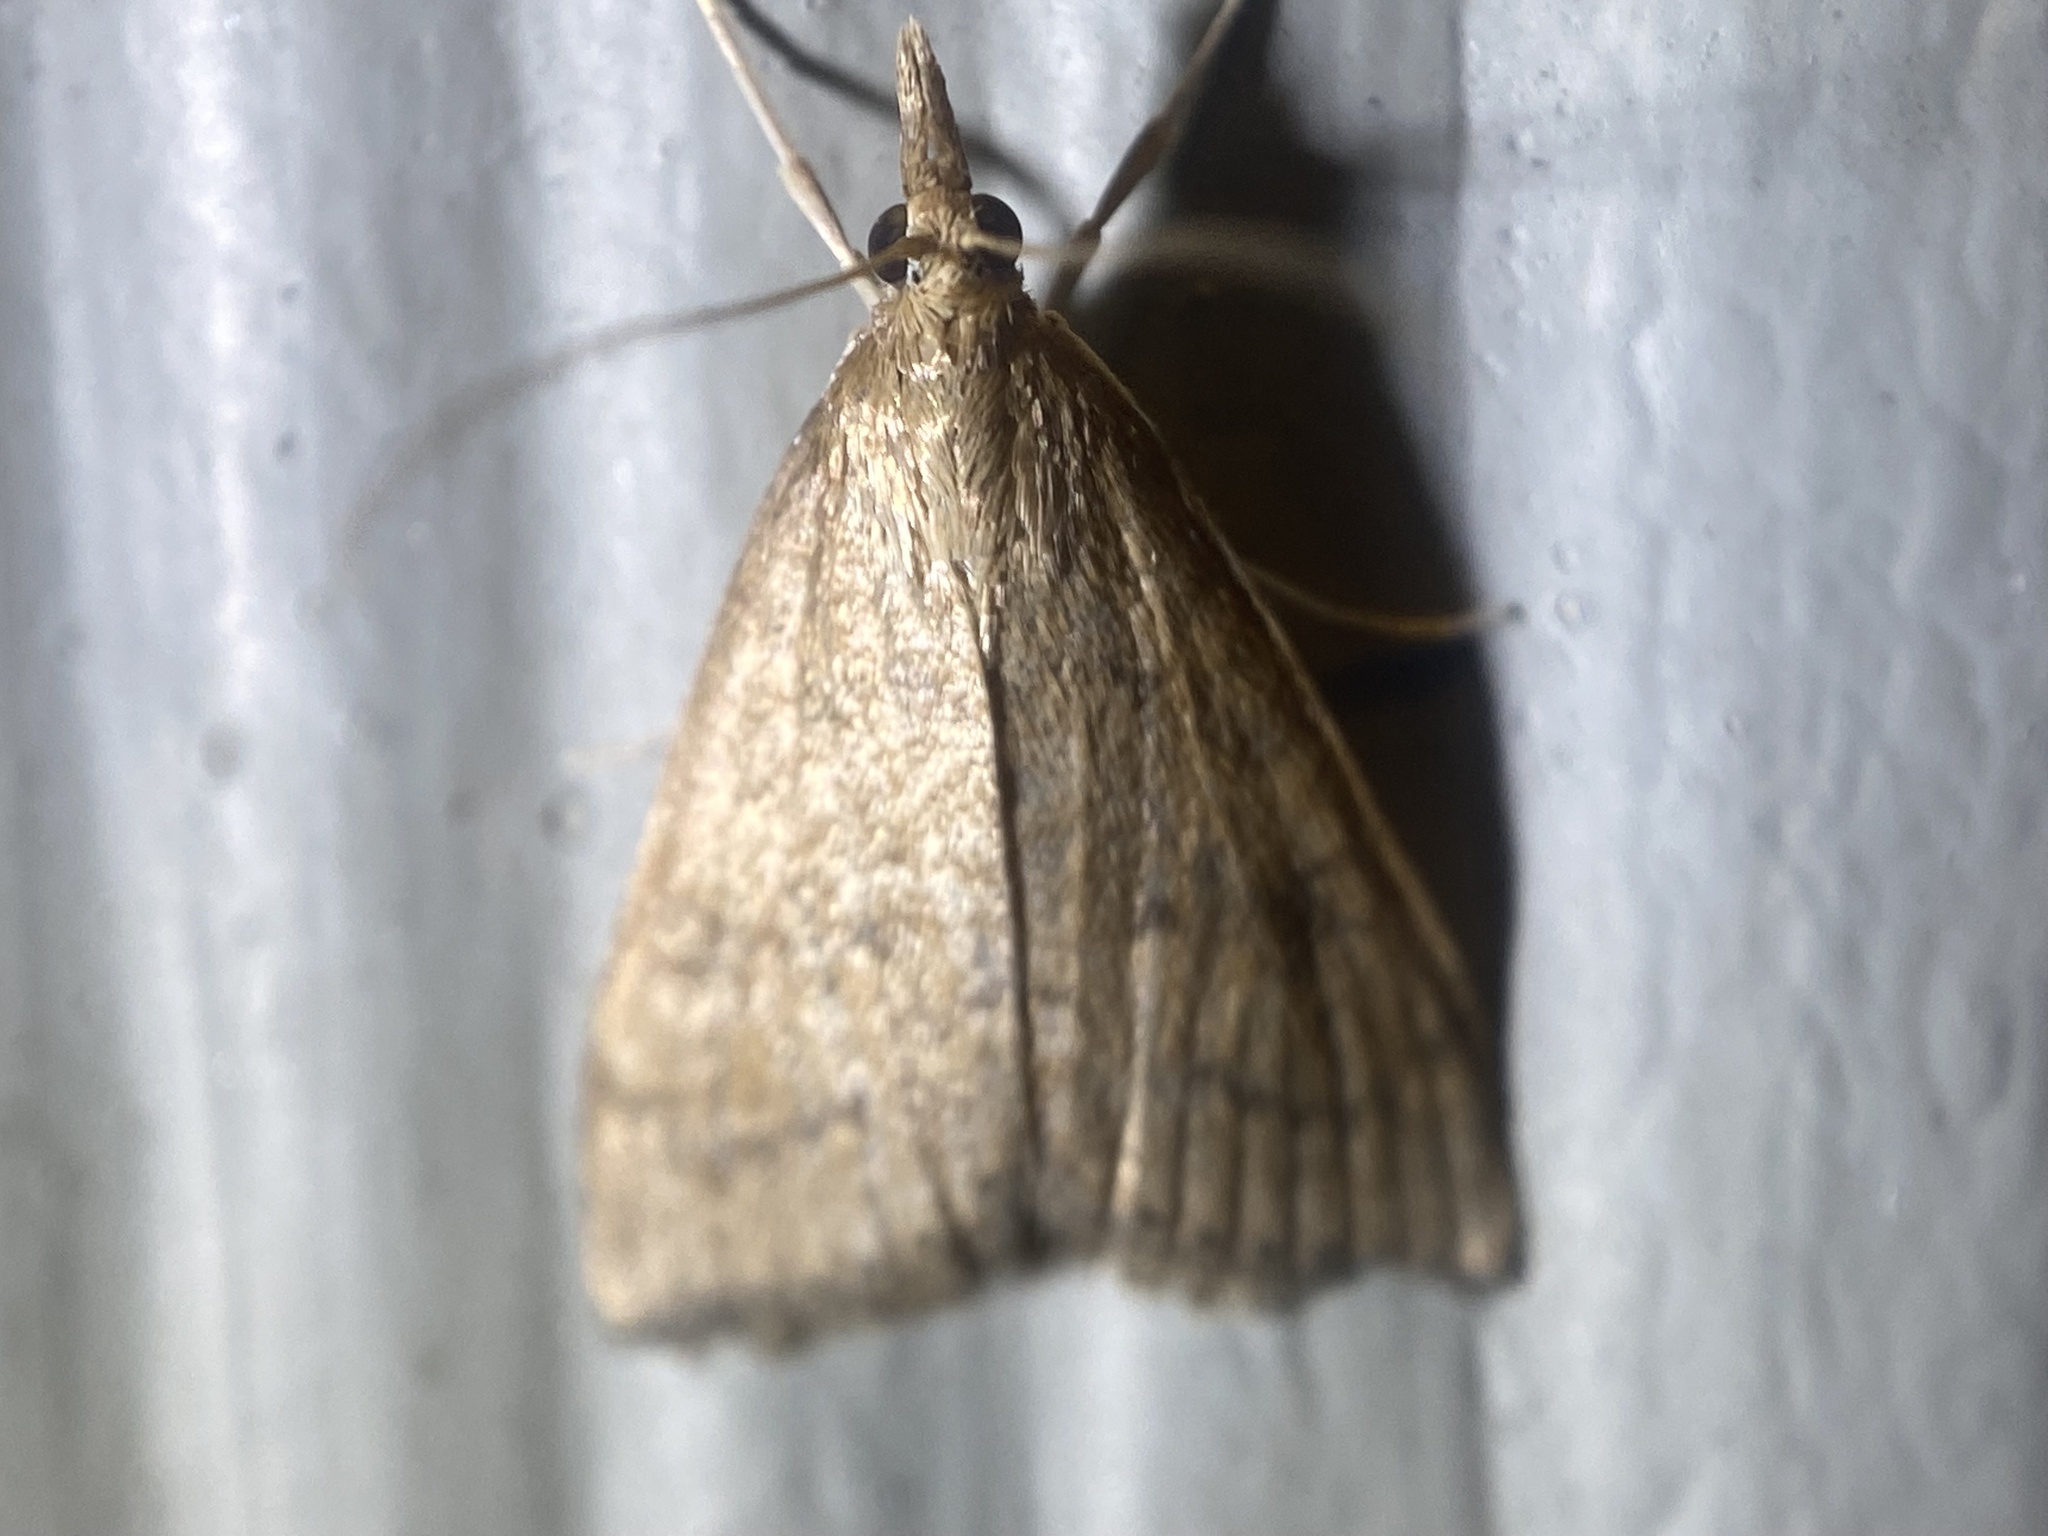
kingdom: Animalia
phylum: Arthropoda
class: Insecta
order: Lepidoptera
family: Crambidae
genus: Udea
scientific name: Udea rubigalis
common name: Celery leaftier moth
